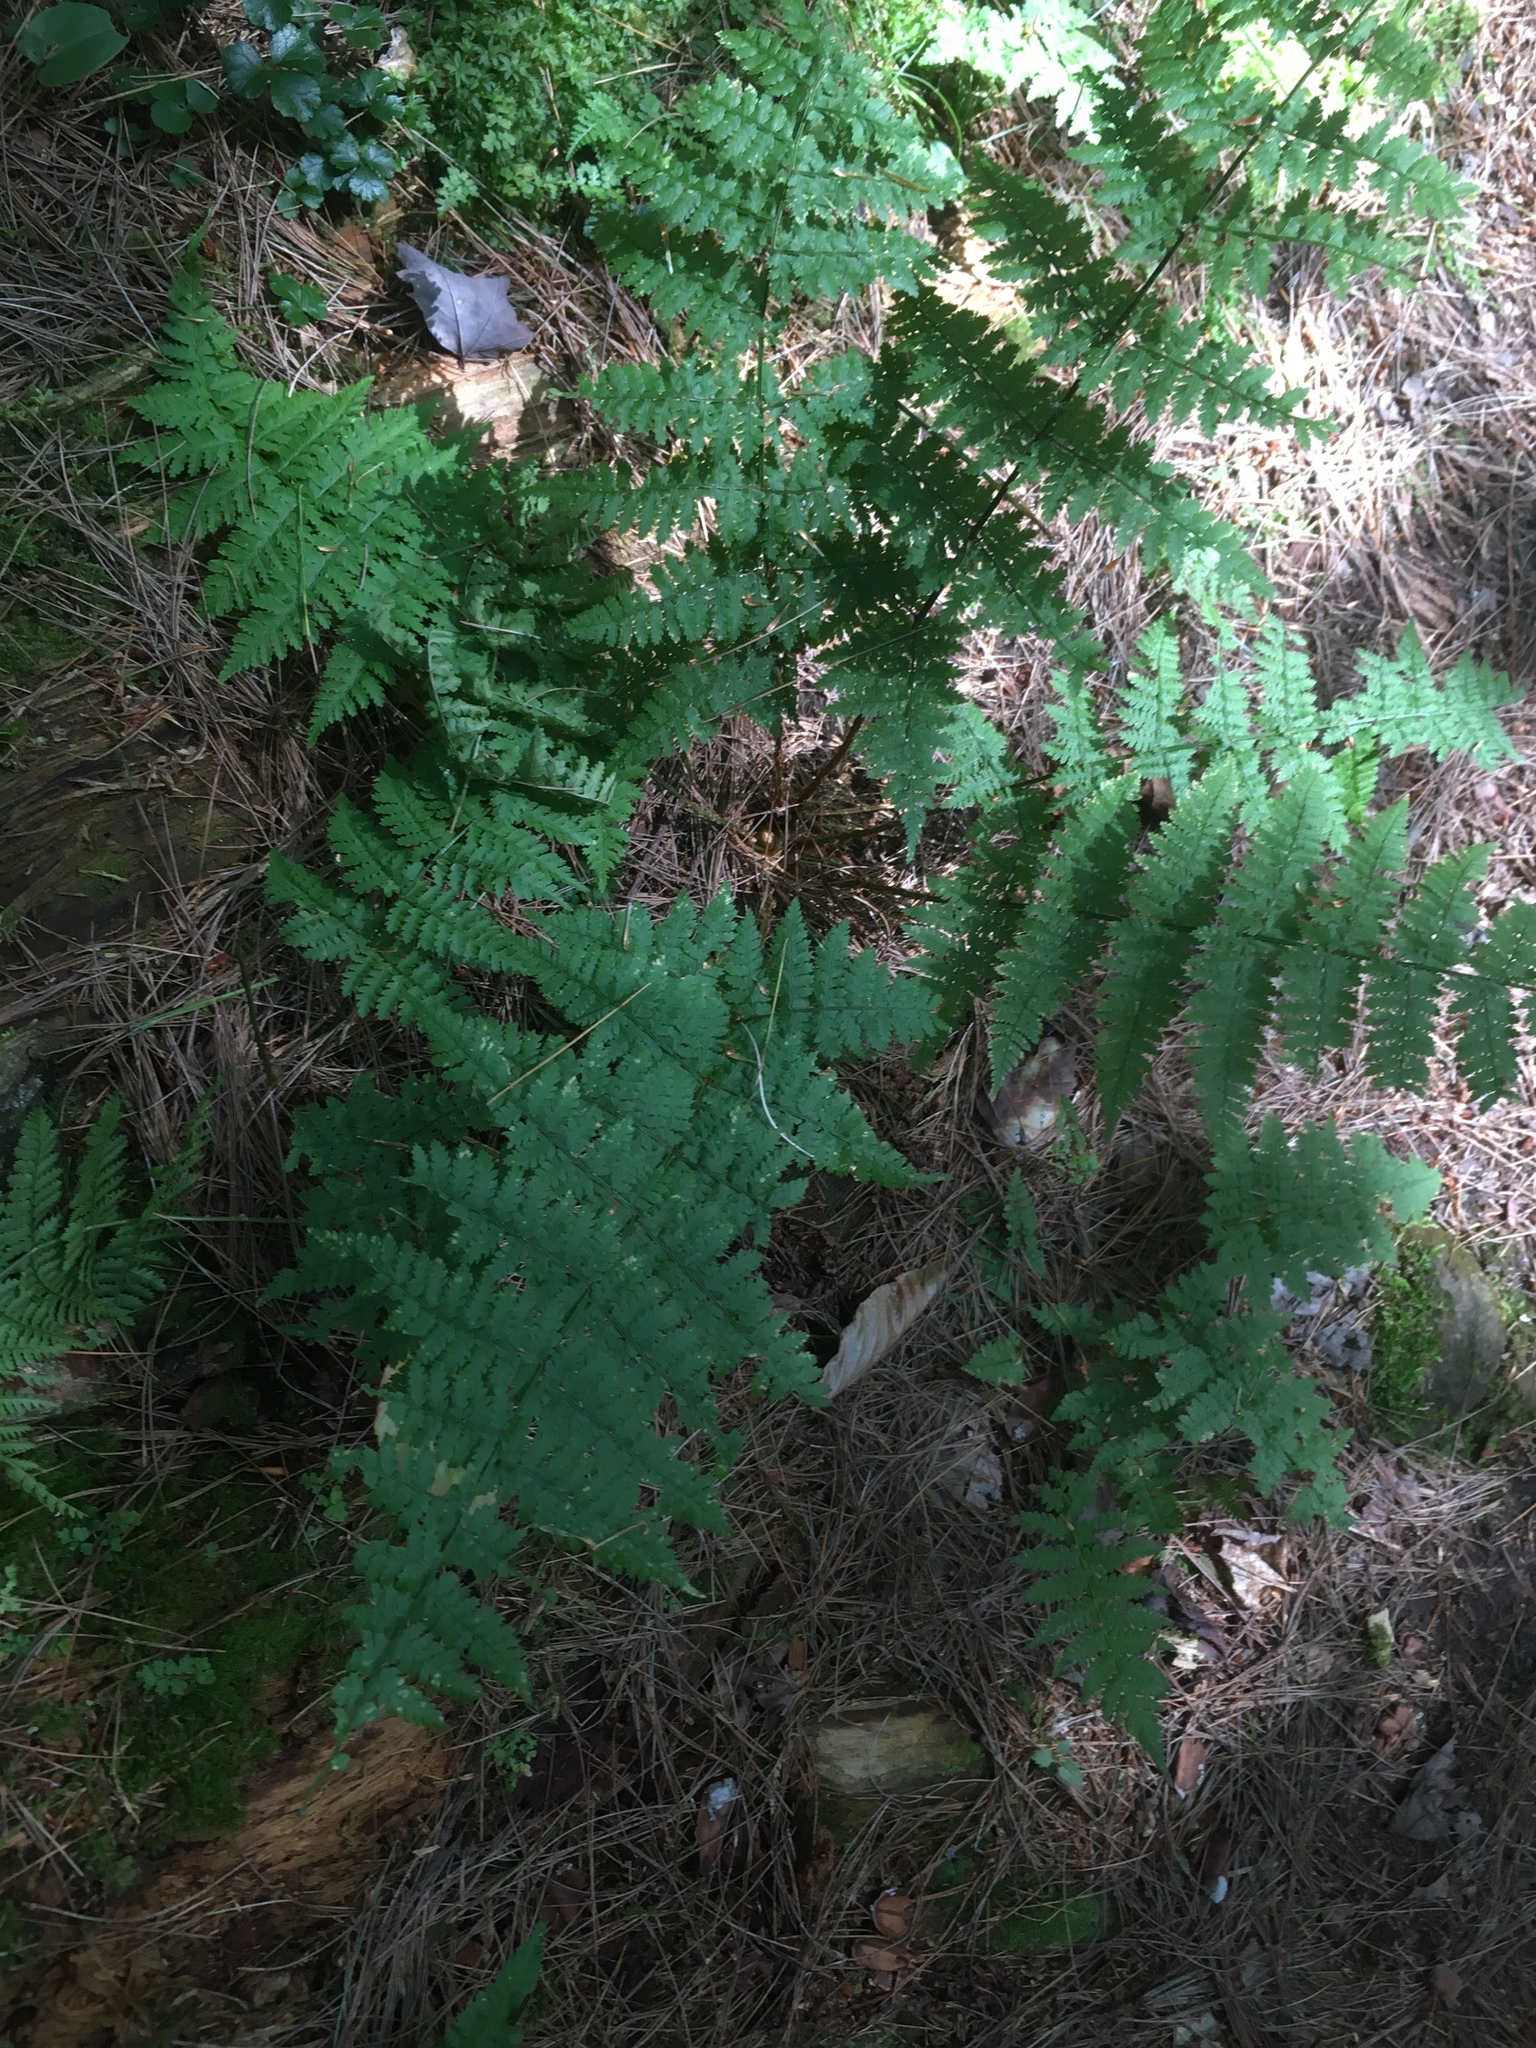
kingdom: Plantae
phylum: Tracheophyta
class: Polypodiopsida
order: Polypodiales
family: Dryopteridaceae
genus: Dryopteris
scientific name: Dryopteris intermedia
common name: Evergreen wood fern
